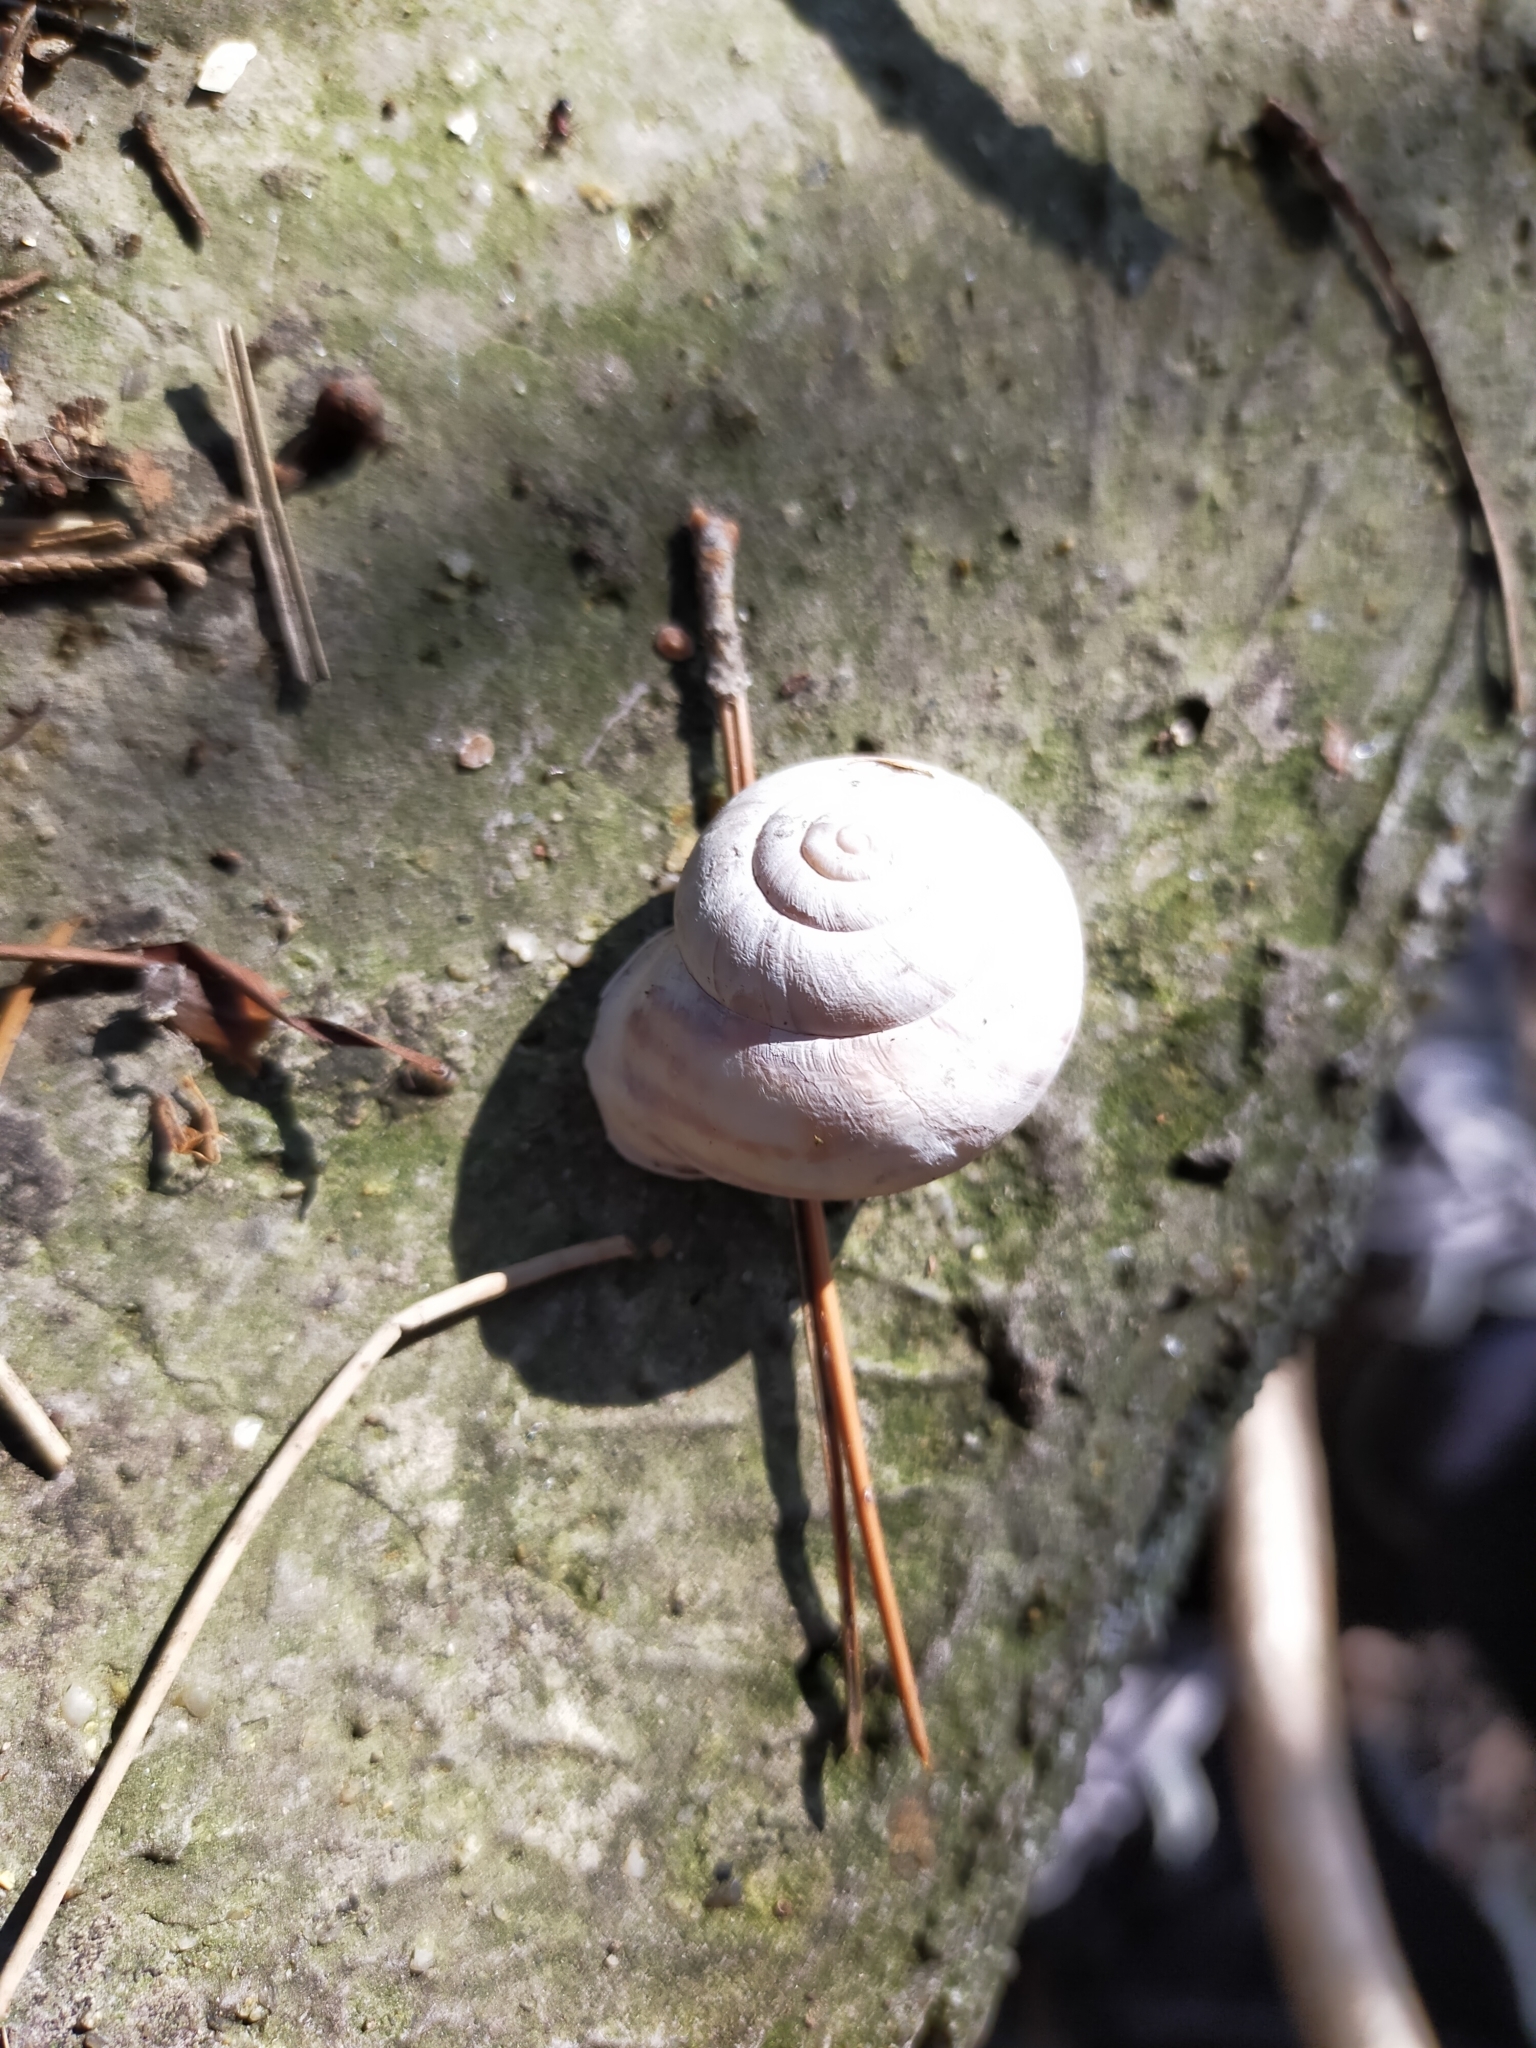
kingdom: Animalia
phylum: Mollusca
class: Gastropoda
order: Stylommatophora
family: Helicidae
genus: Eobania
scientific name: Eobania vermiculata
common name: Chocolateband snail
